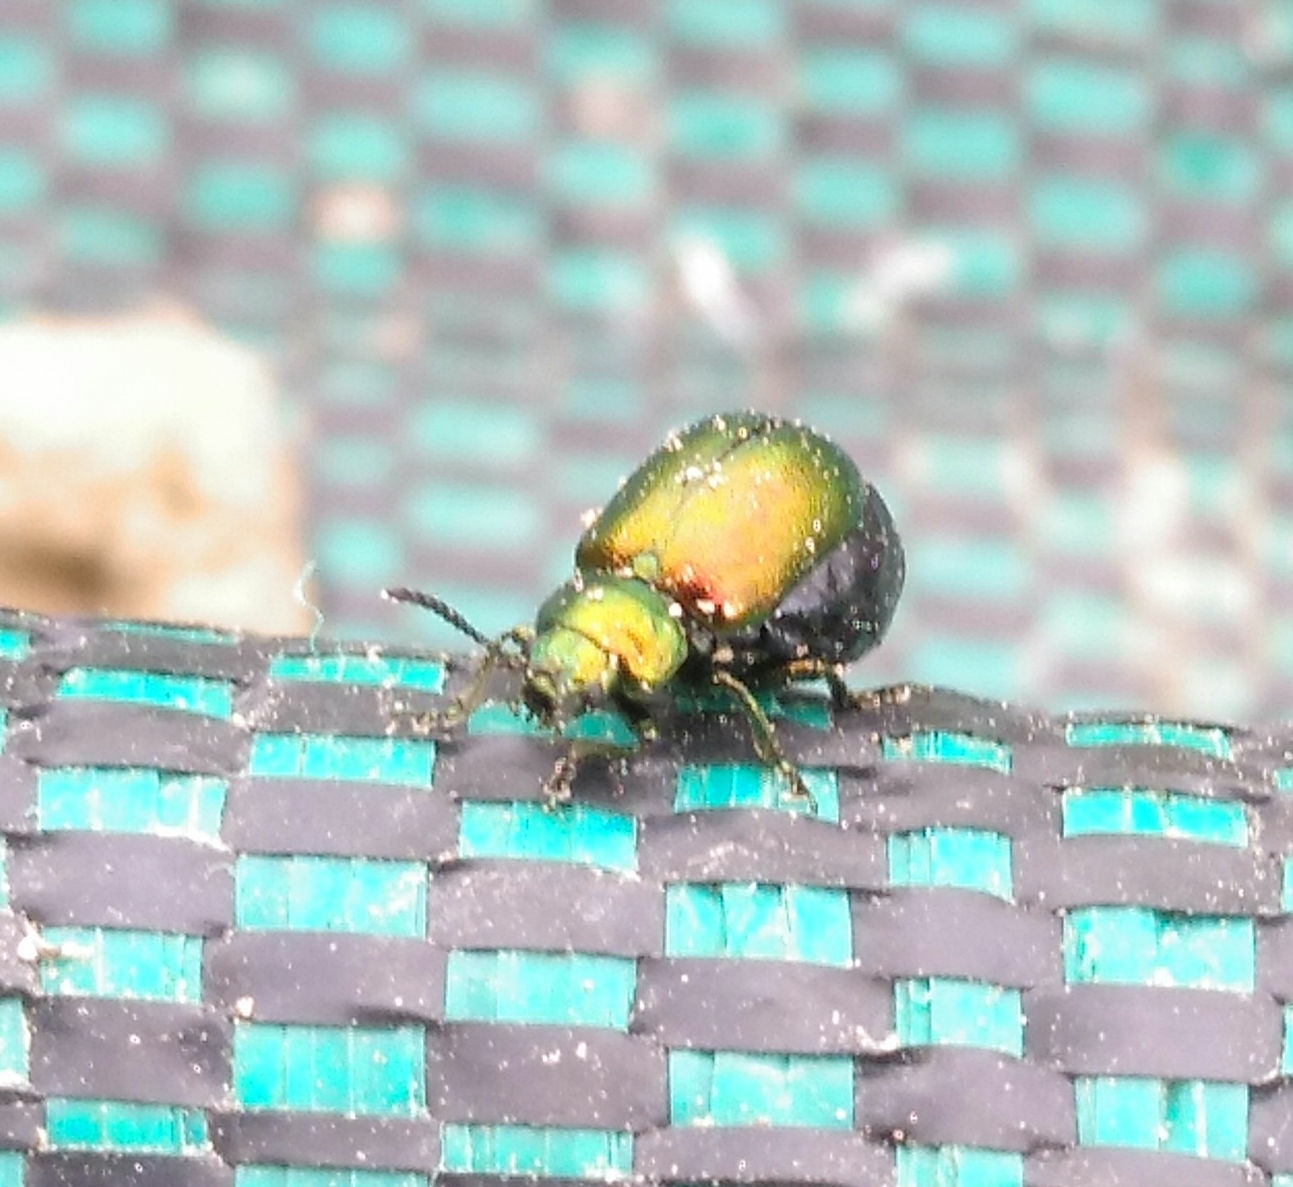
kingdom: Animalia
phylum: Arthropoda
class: Insecta
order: Coleoptera
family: Chrysomelidae
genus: Gastrophysa
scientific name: Gastrophysa viridula
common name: Green dock beetle
